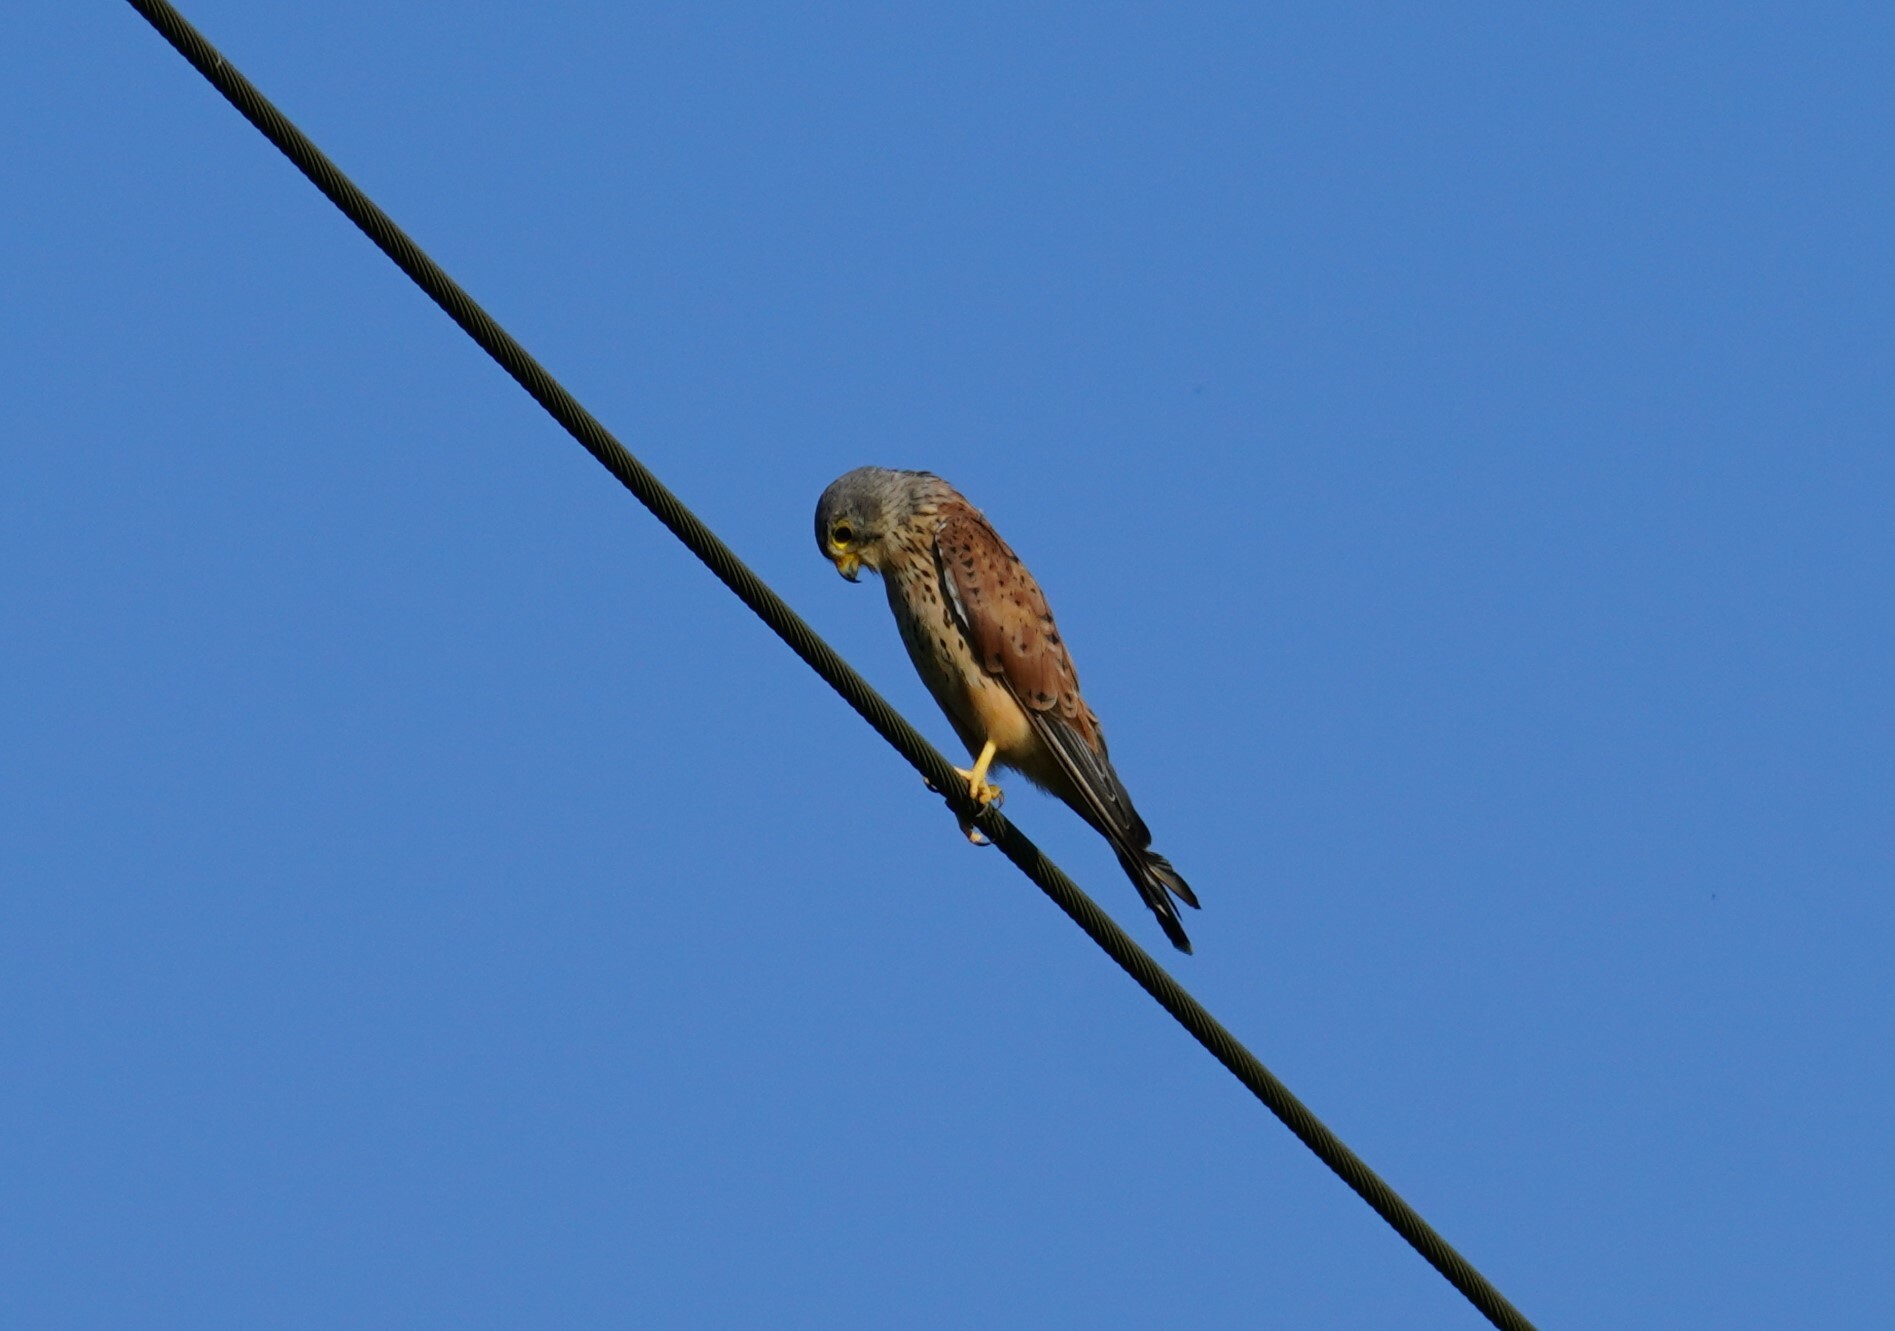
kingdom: Animalia
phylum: Chordata
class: Aves
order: Falconiformes
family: Falconidae
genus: Falco
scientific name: Falco tinnunculus
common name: Common kestrel
